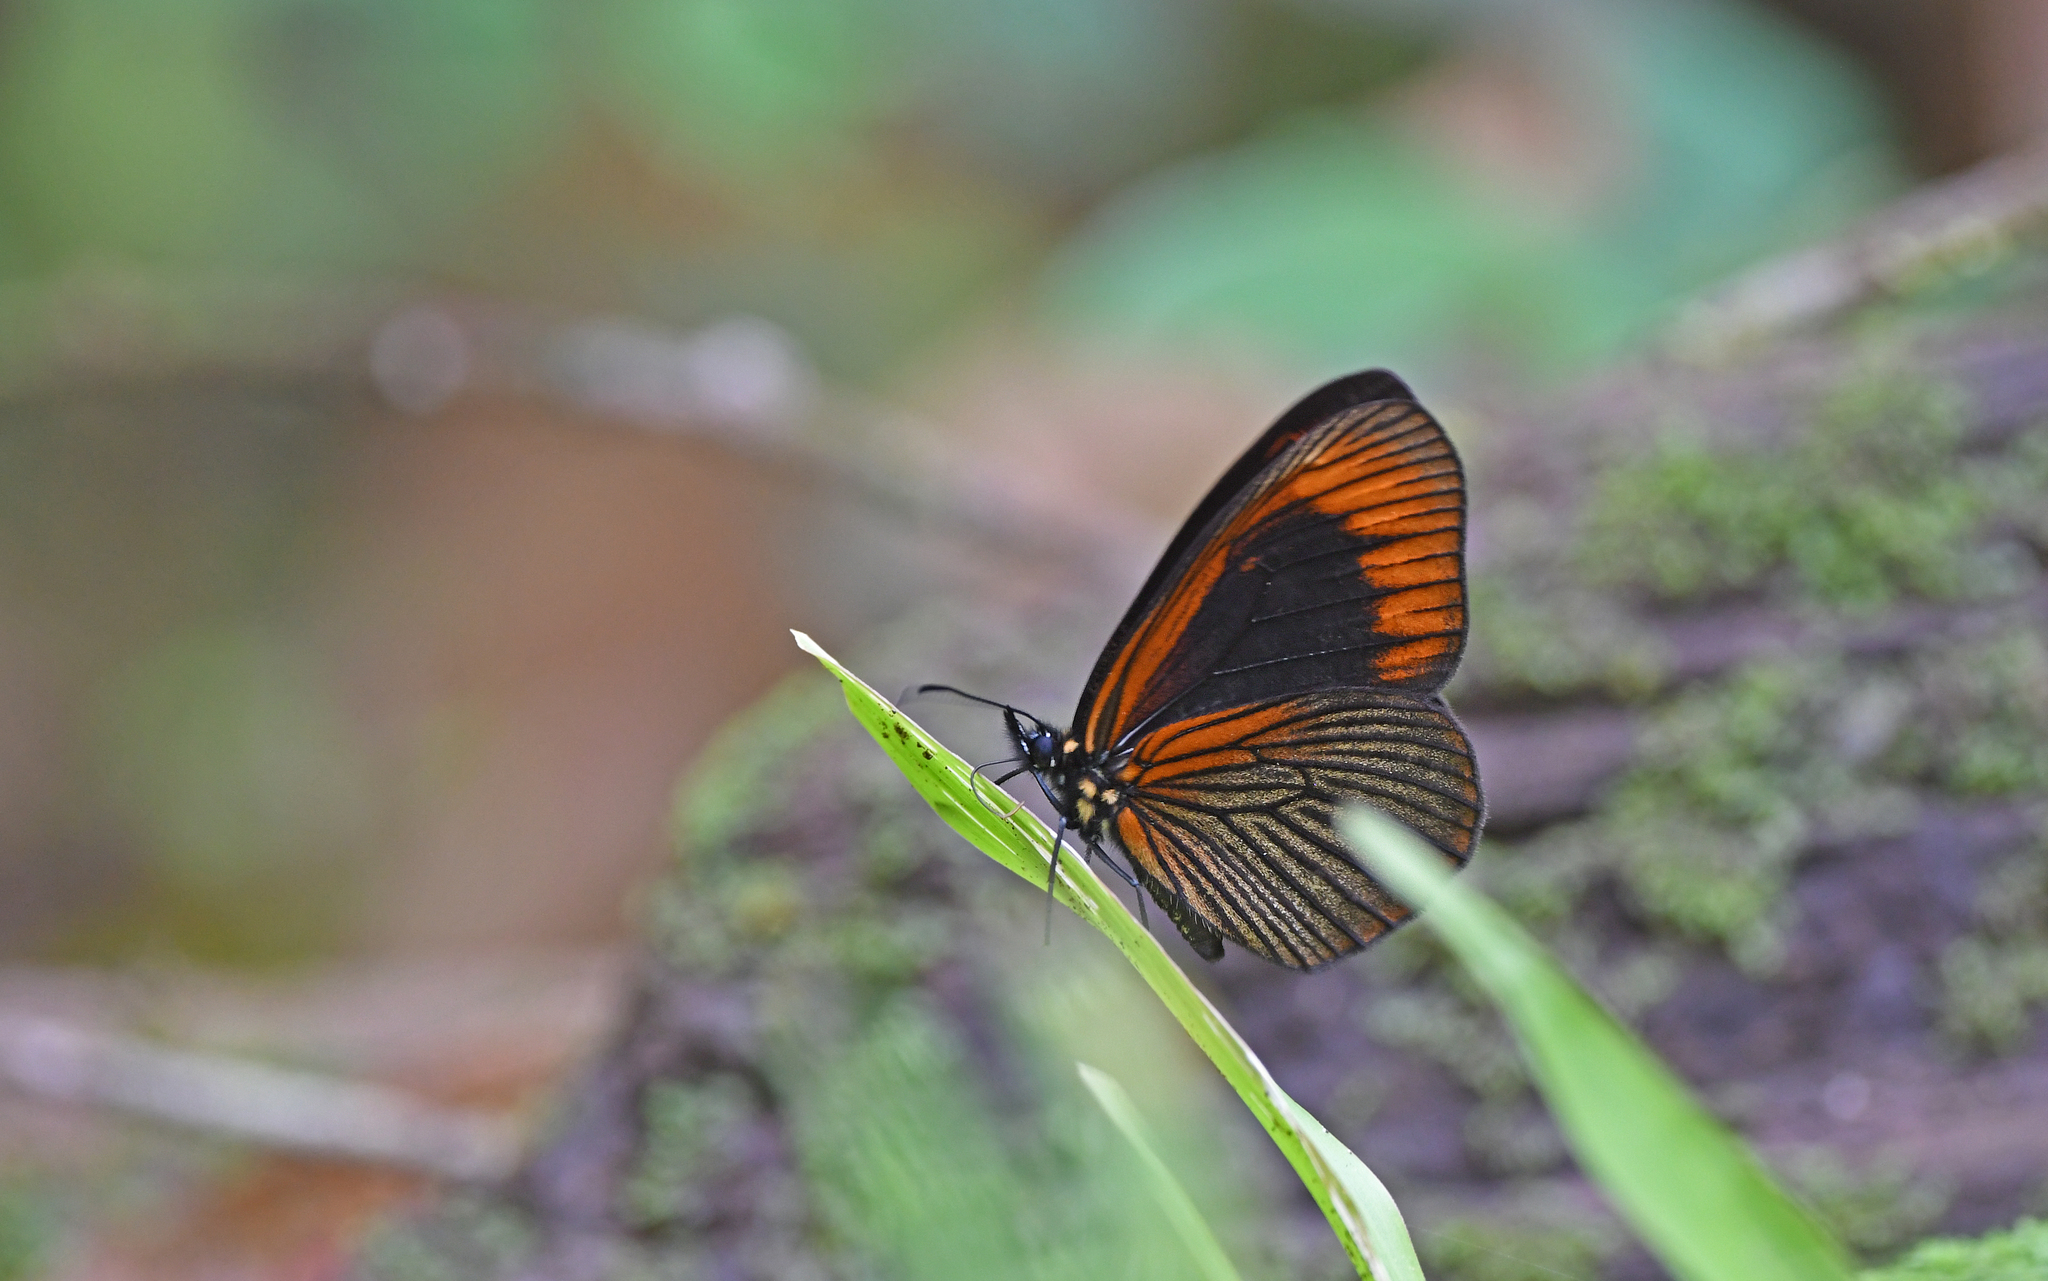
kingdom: Animalia
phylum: Arthropoda
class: Insecta
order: Lepidoptera
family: Nymphalidae
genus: Lymanopoda
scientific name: Lymanopoda acraeida
